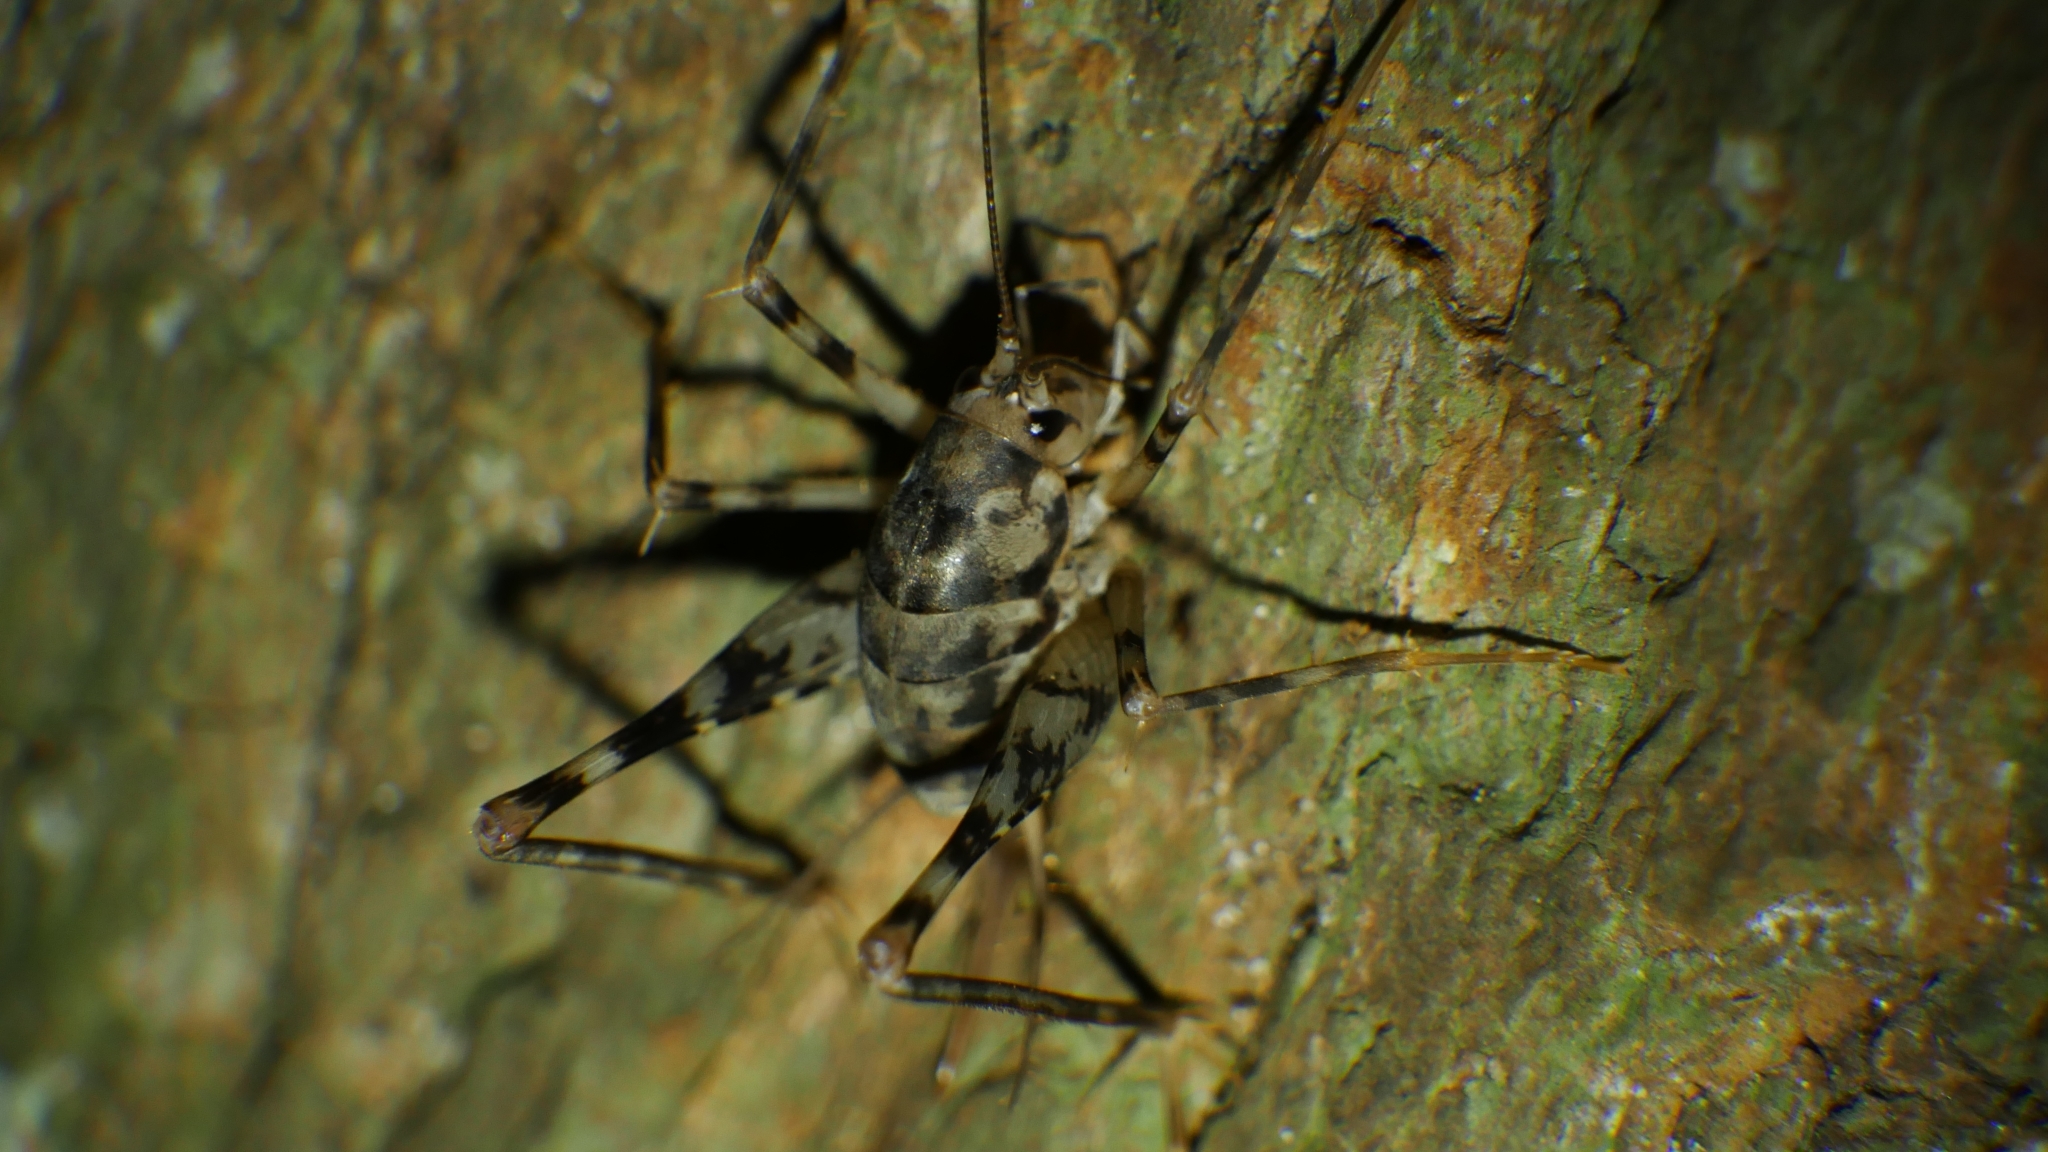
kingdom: Animalia
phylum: Arthropoda
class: Insecta
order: Orthoptera
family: Rhaphidophoridae
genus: Tachycines
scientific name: Tachycines asynamorus
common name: Greenhouse camel cricket
